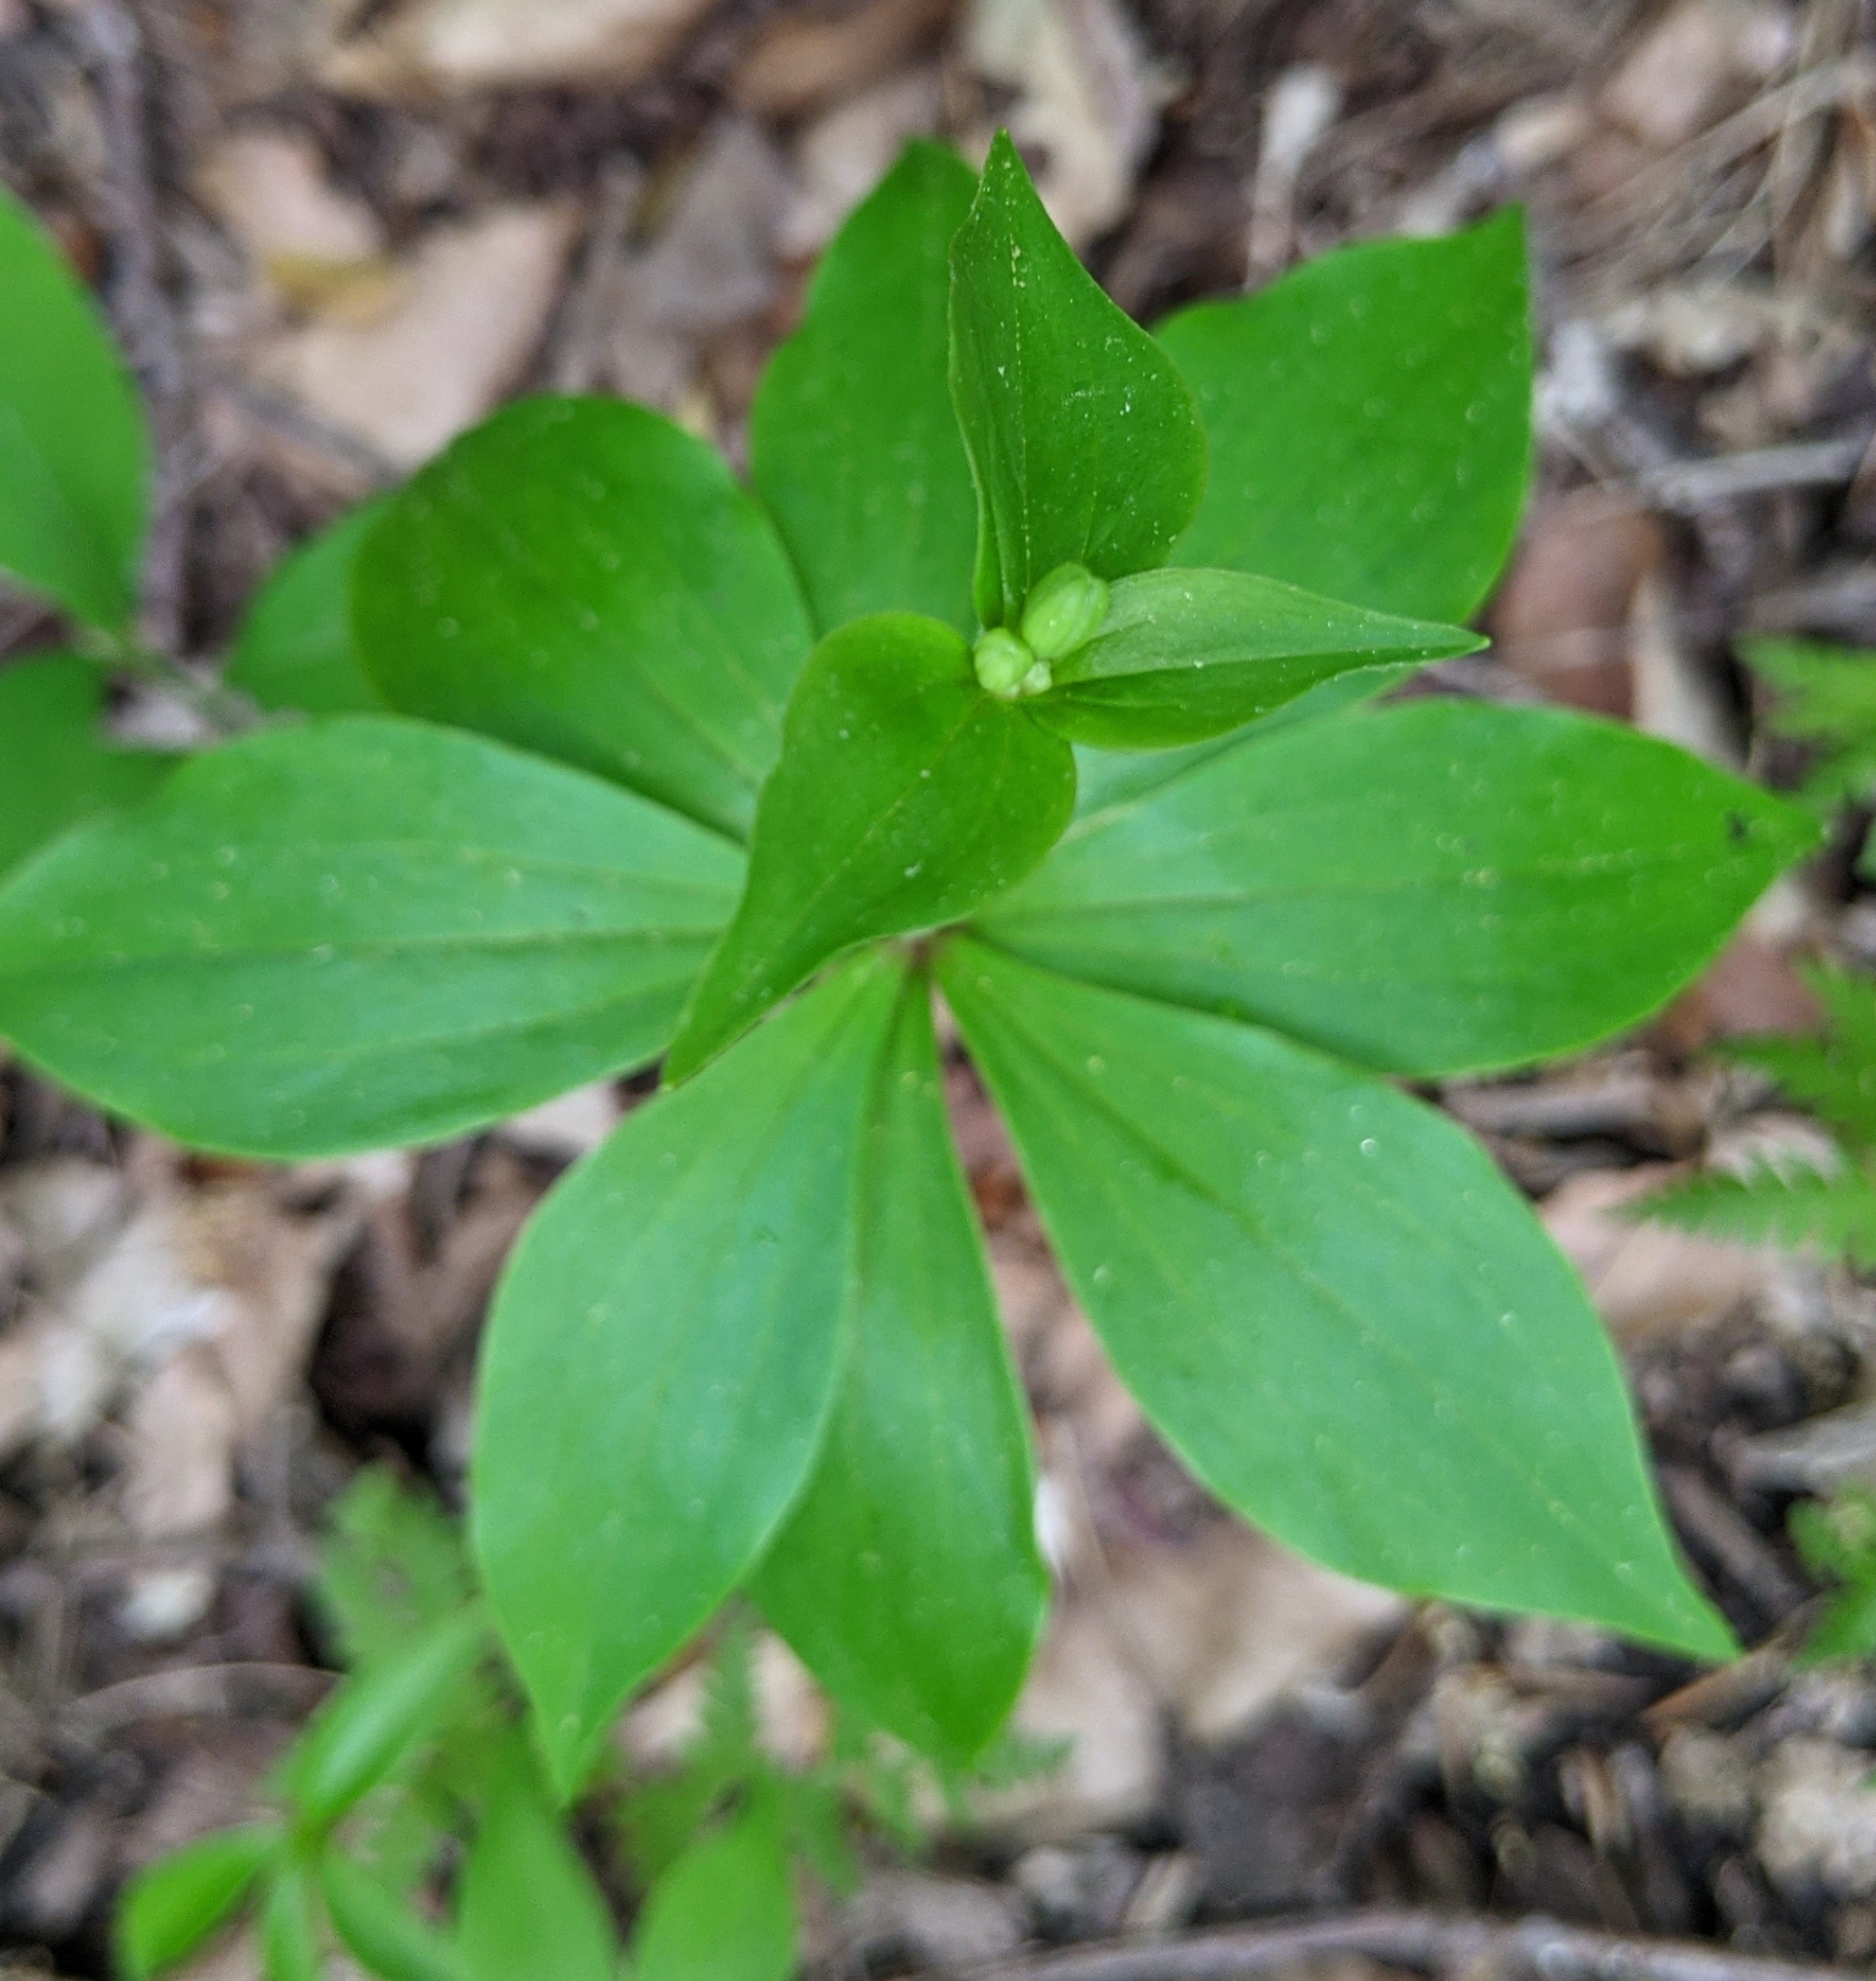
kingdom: Plantae
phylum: Tracheophyta
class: Liliopsida
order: Liliales
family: Liliaceae
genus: Medeola
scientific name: Medeola virginiana
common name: Indian cucumber-root
